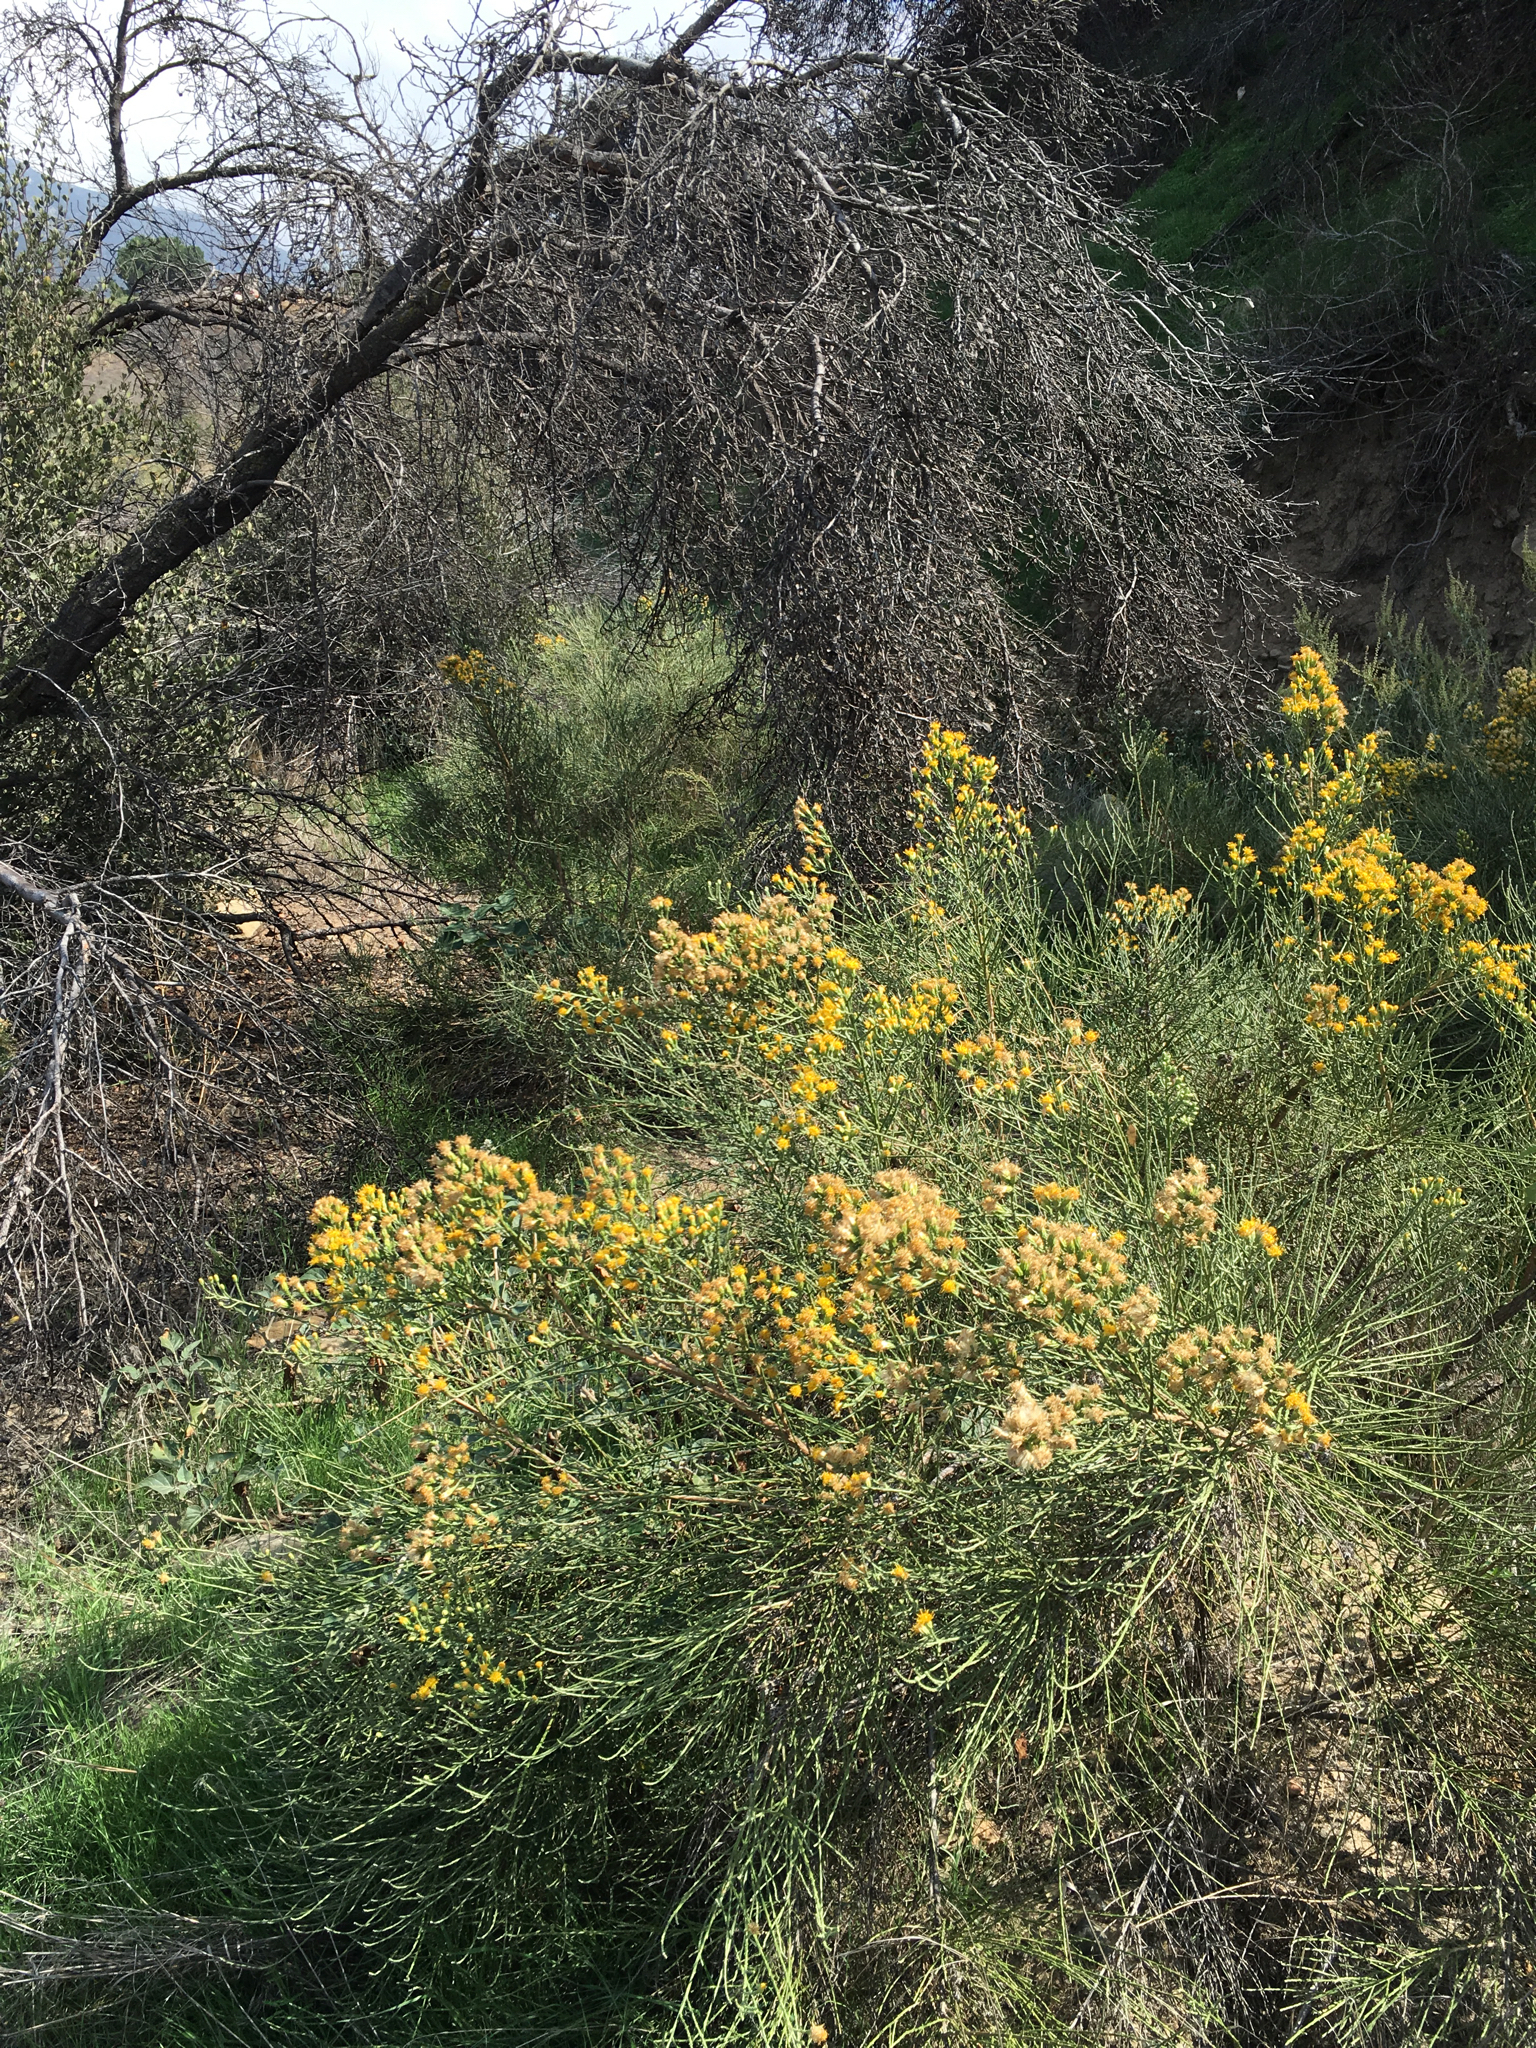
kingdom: Plantae
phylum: Tracheophyta
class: Magnoliopsida
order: Asterales
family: Asteraceae
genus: Lepidospartum
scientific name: Lepidospartum squamatum
